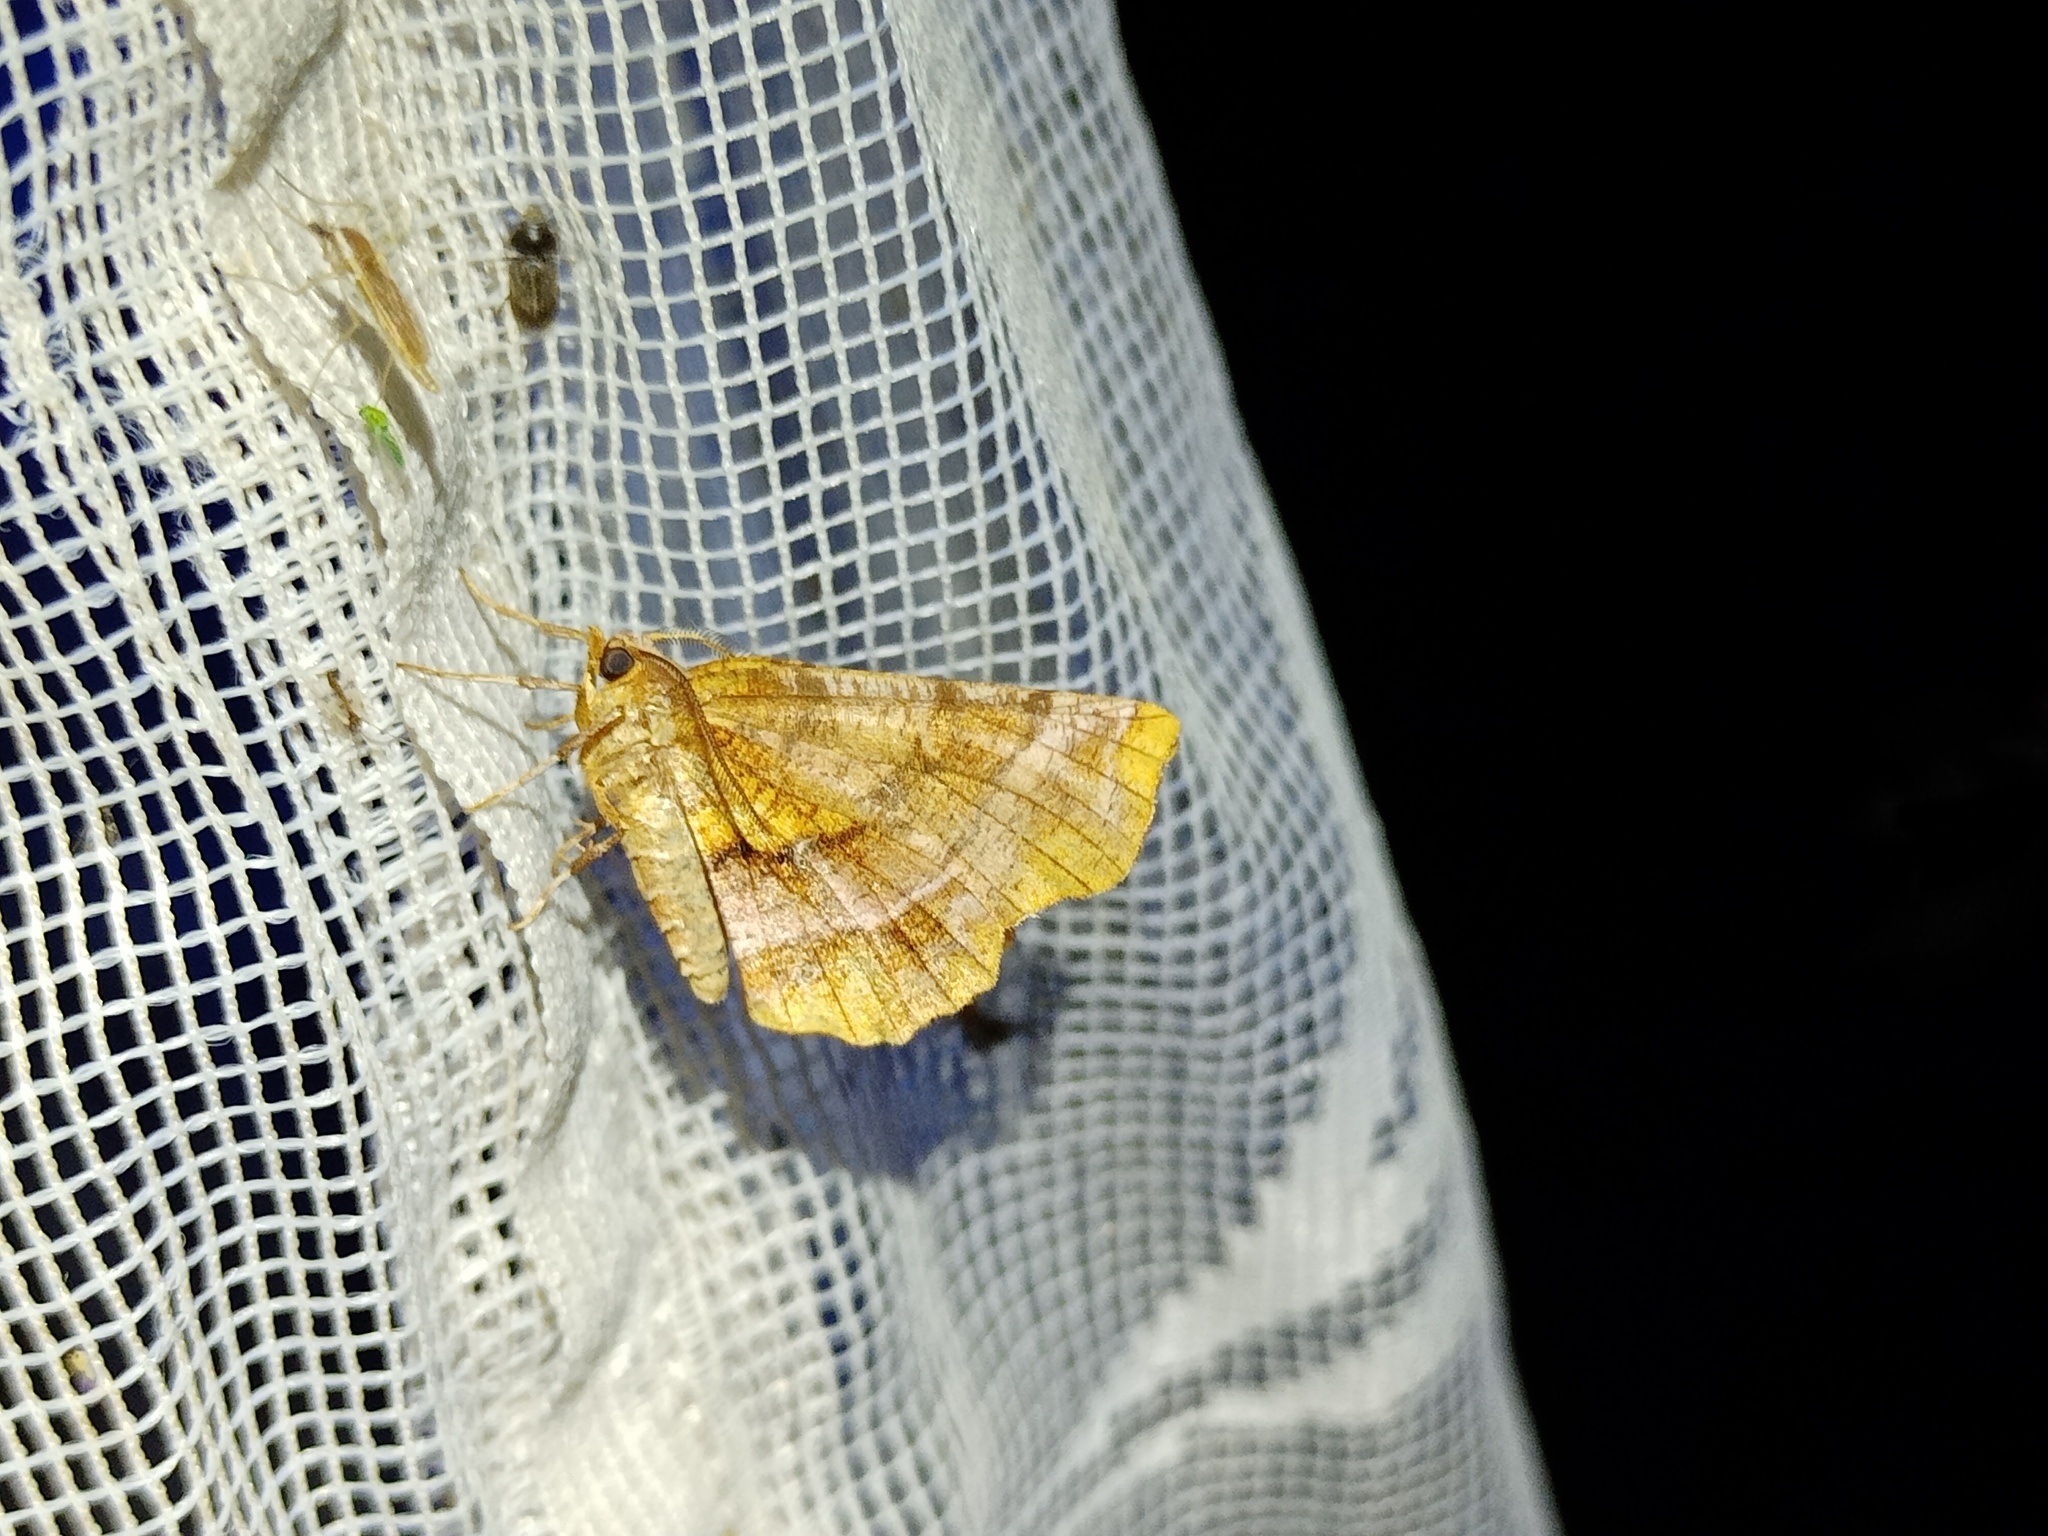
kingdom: Animalia
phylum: Arthropoda
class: Insecta
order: Lepidoptera
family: Geometridae
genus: Selenia
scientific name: Selenia dentaria
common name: Early thorn
